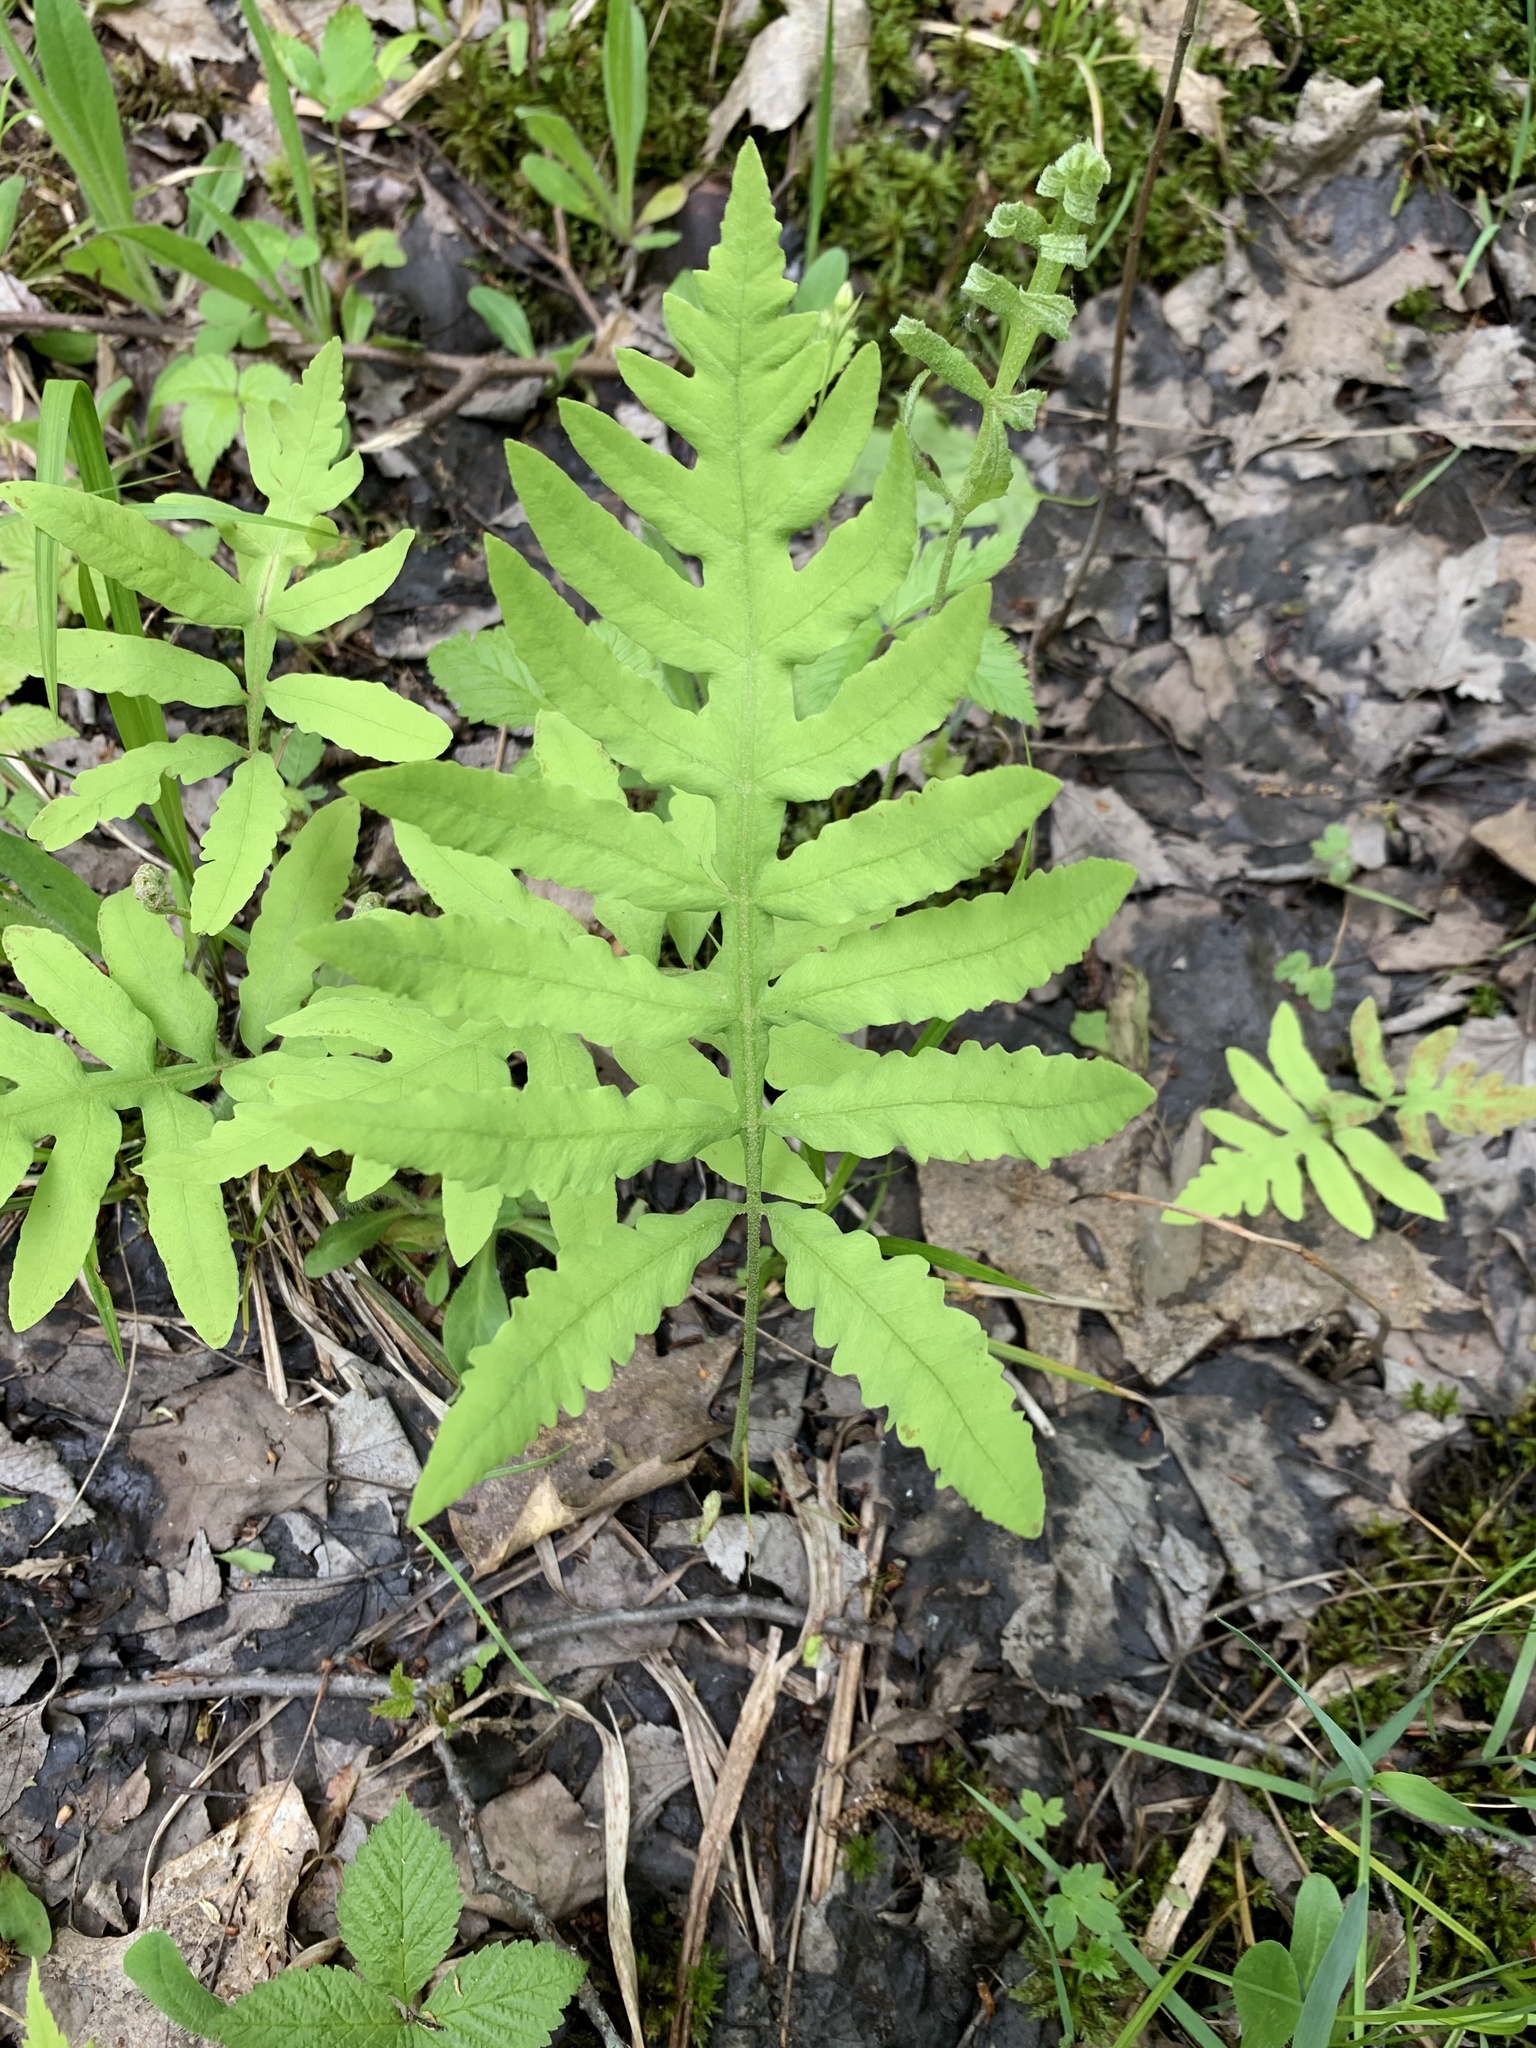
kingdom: Plantae
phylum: Tracheophyta
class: Polypodiopsida
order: Polypodiales
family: Onocleaceae
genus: Onoclea
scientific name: Onoclea sensibilis
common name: Sensitive fern
